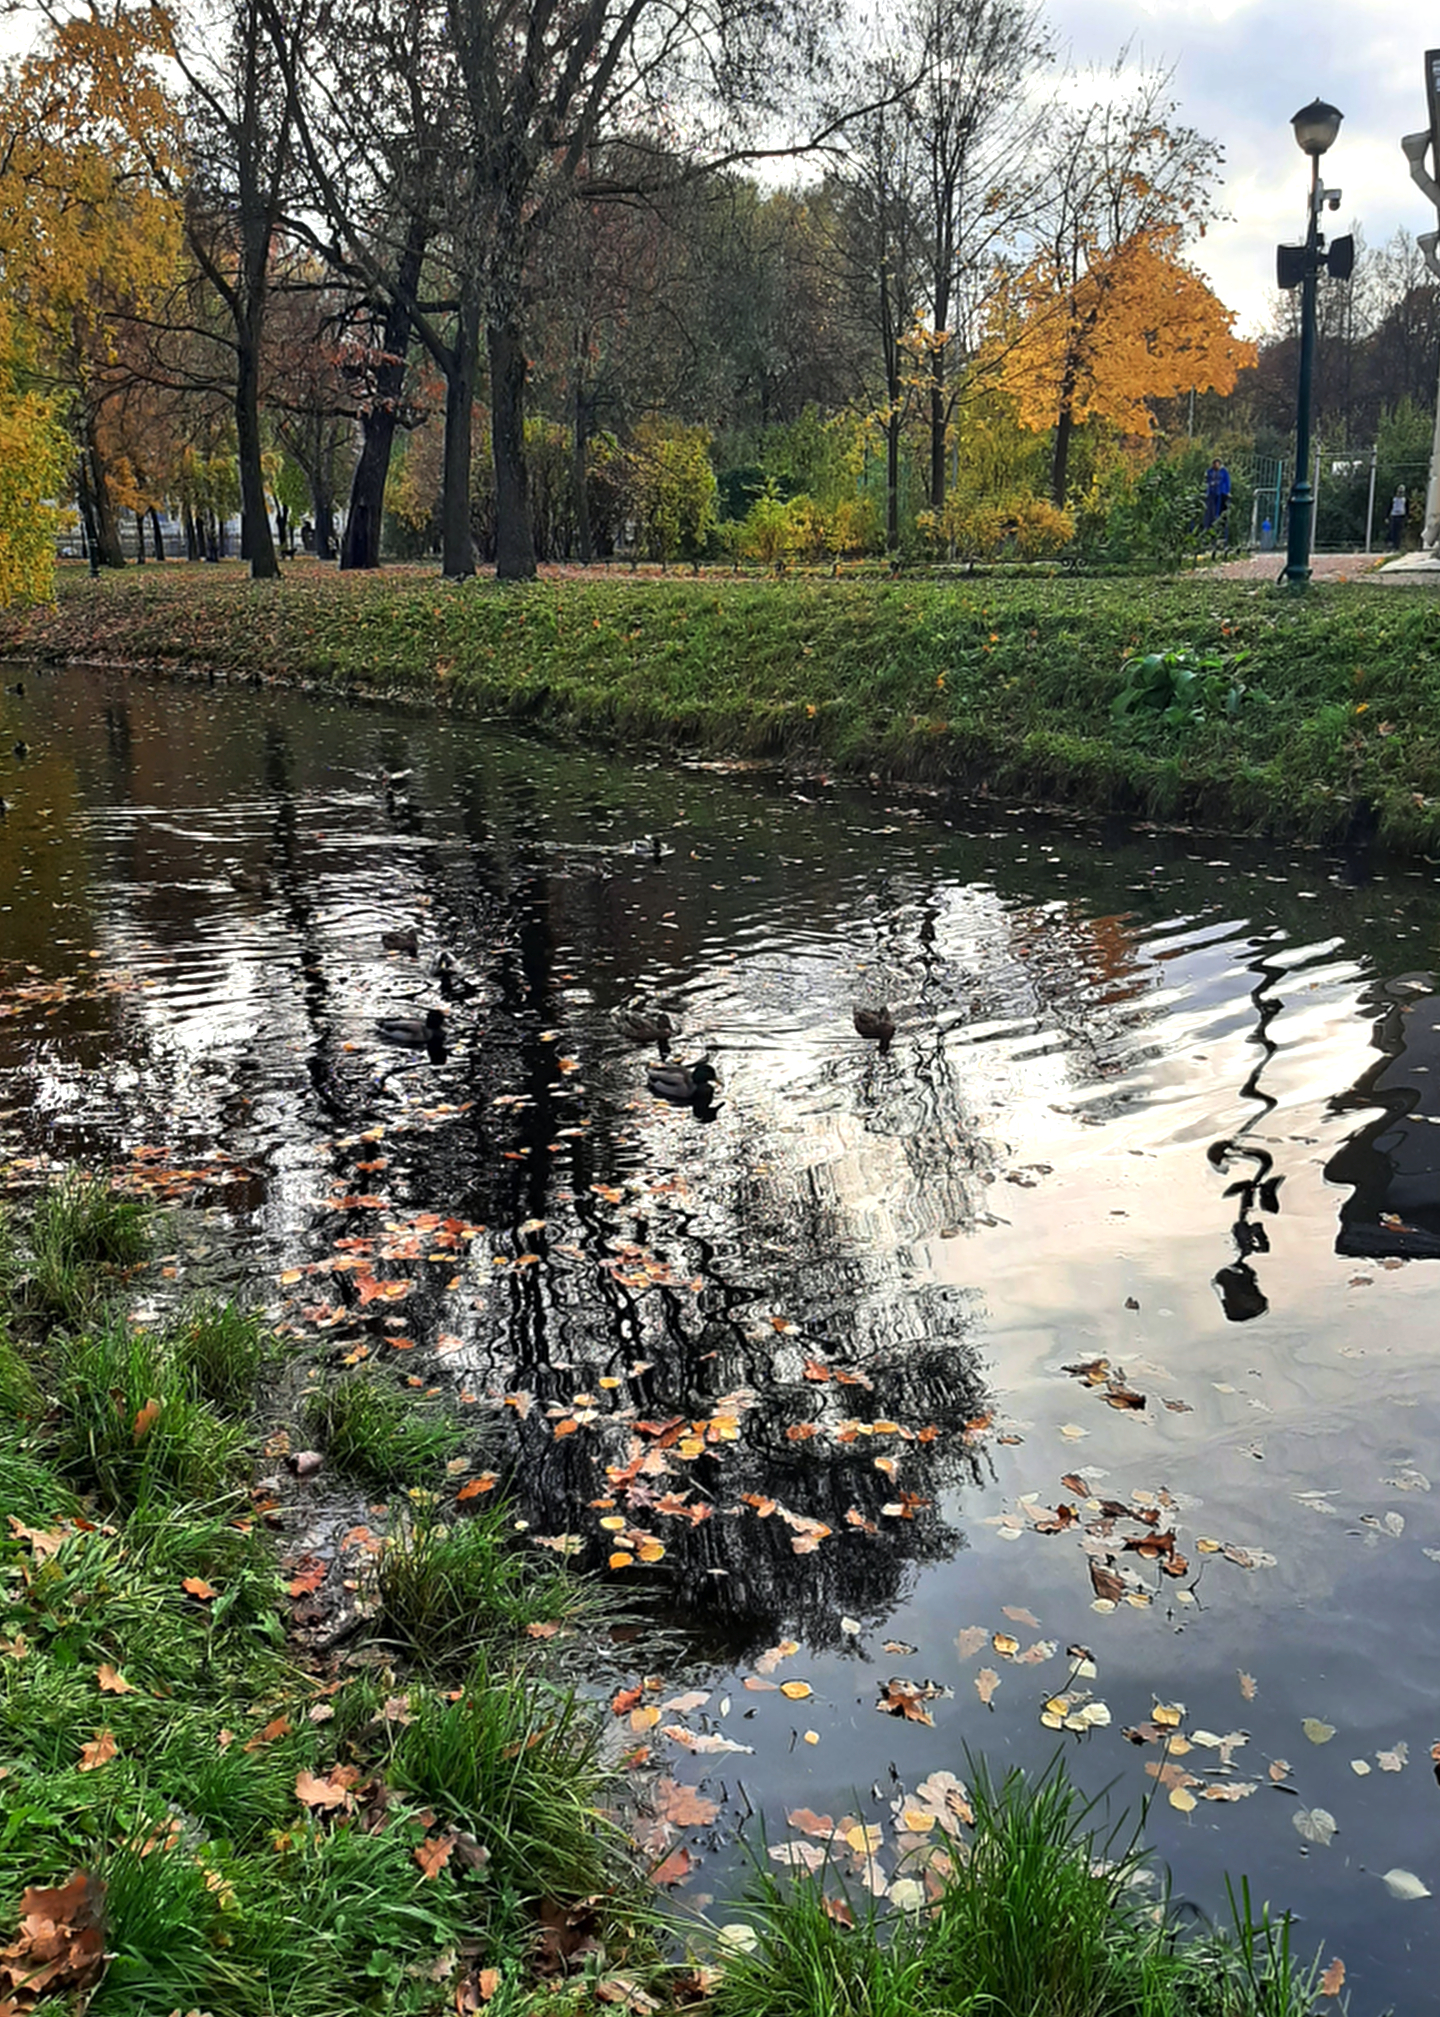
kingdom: Plantae
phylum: Chlorophyta
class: Chlorophyceae
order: Sphaeropleales
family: Hydrodictyaceae
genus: Pediastrum
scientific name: Pediastrum duplex
